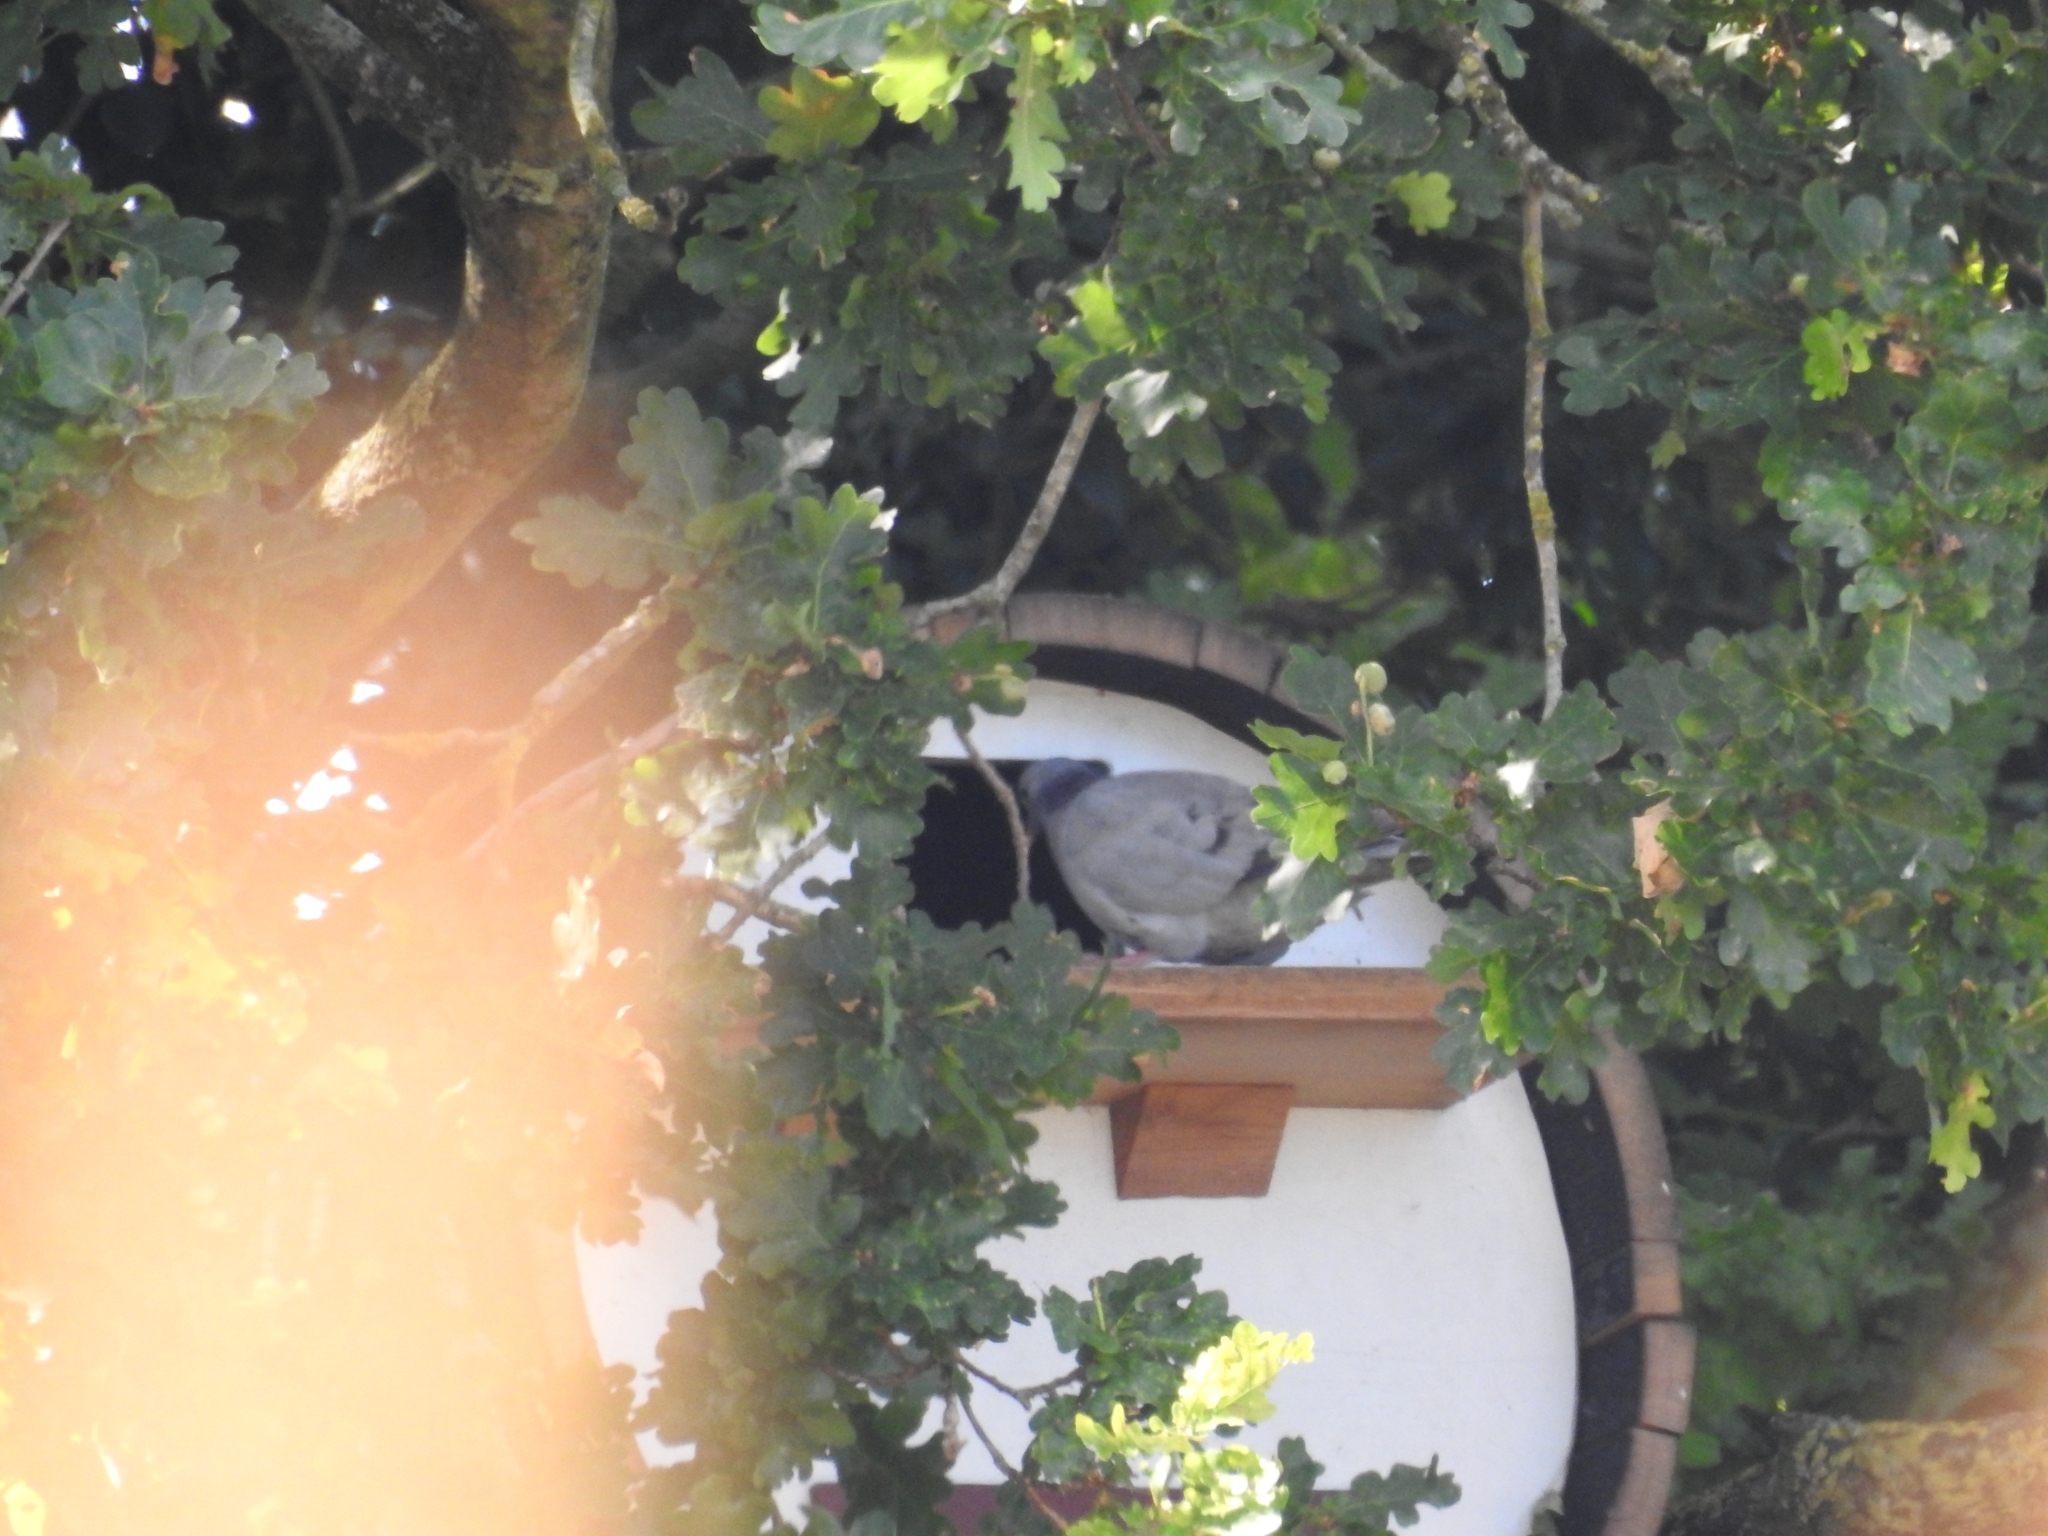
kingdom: Animalia
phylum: Chordata
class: Aves
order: Columbiformes
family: Columbidae
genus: Columba
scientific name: Columba oenas
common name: Stock dove
